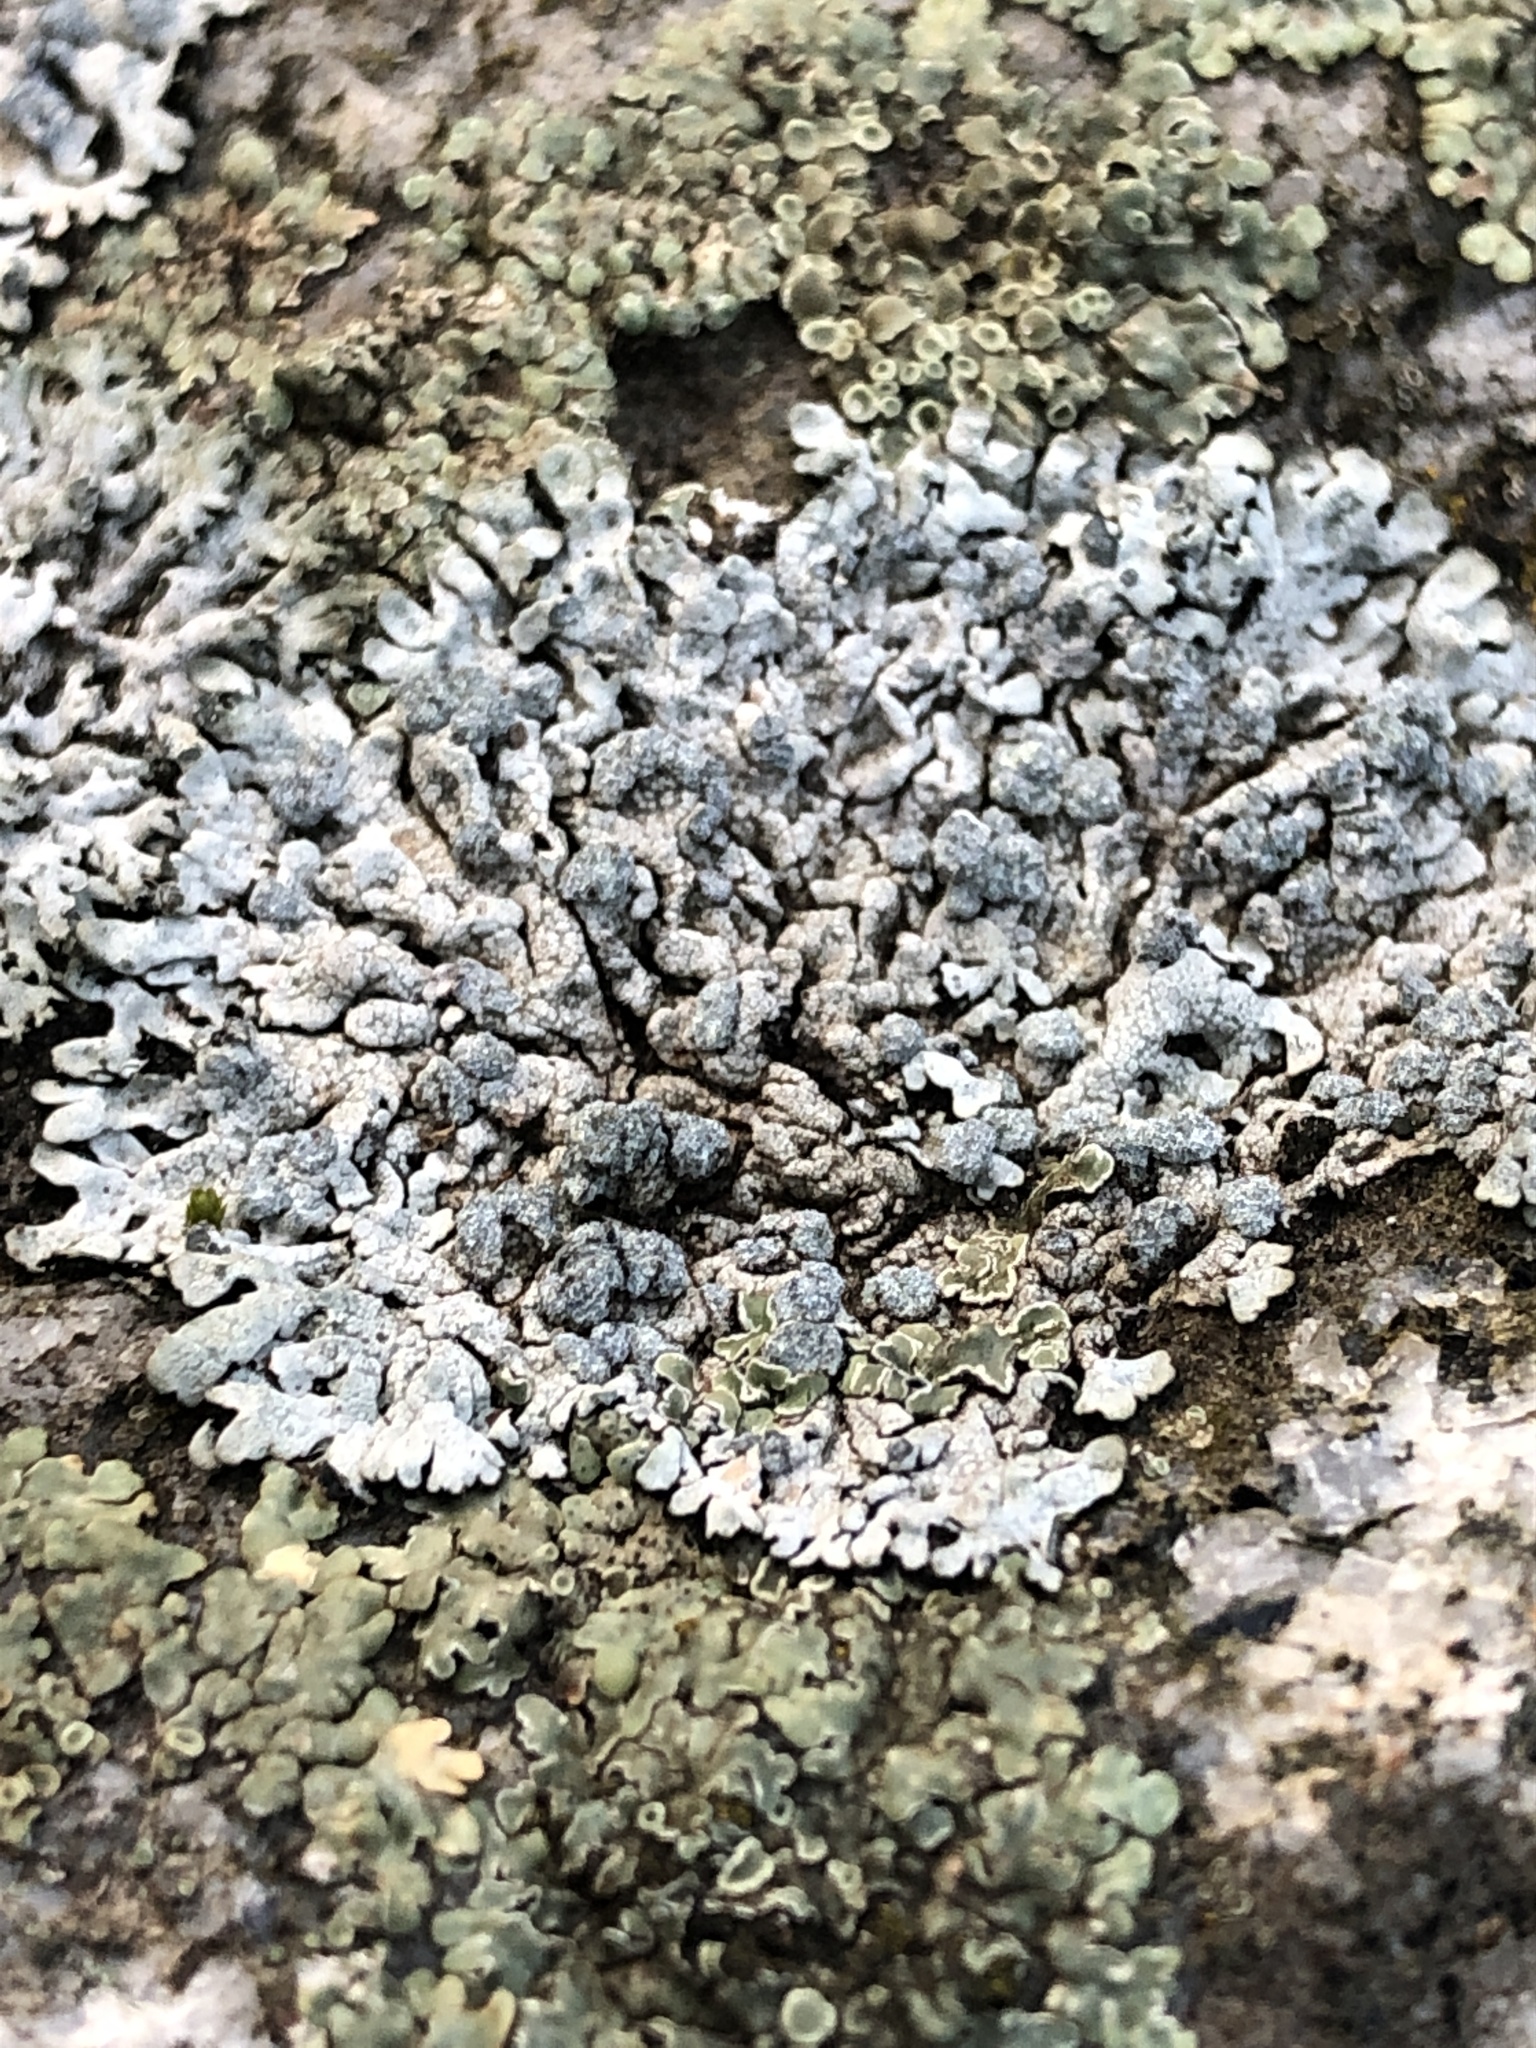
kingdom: Fungi
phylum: Ascomycota
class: Lecanoromycetes
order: Caliciales
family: Physciaceae
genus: Physcia
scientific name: Physcia caesia
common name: Blue-gray rosette lichen
